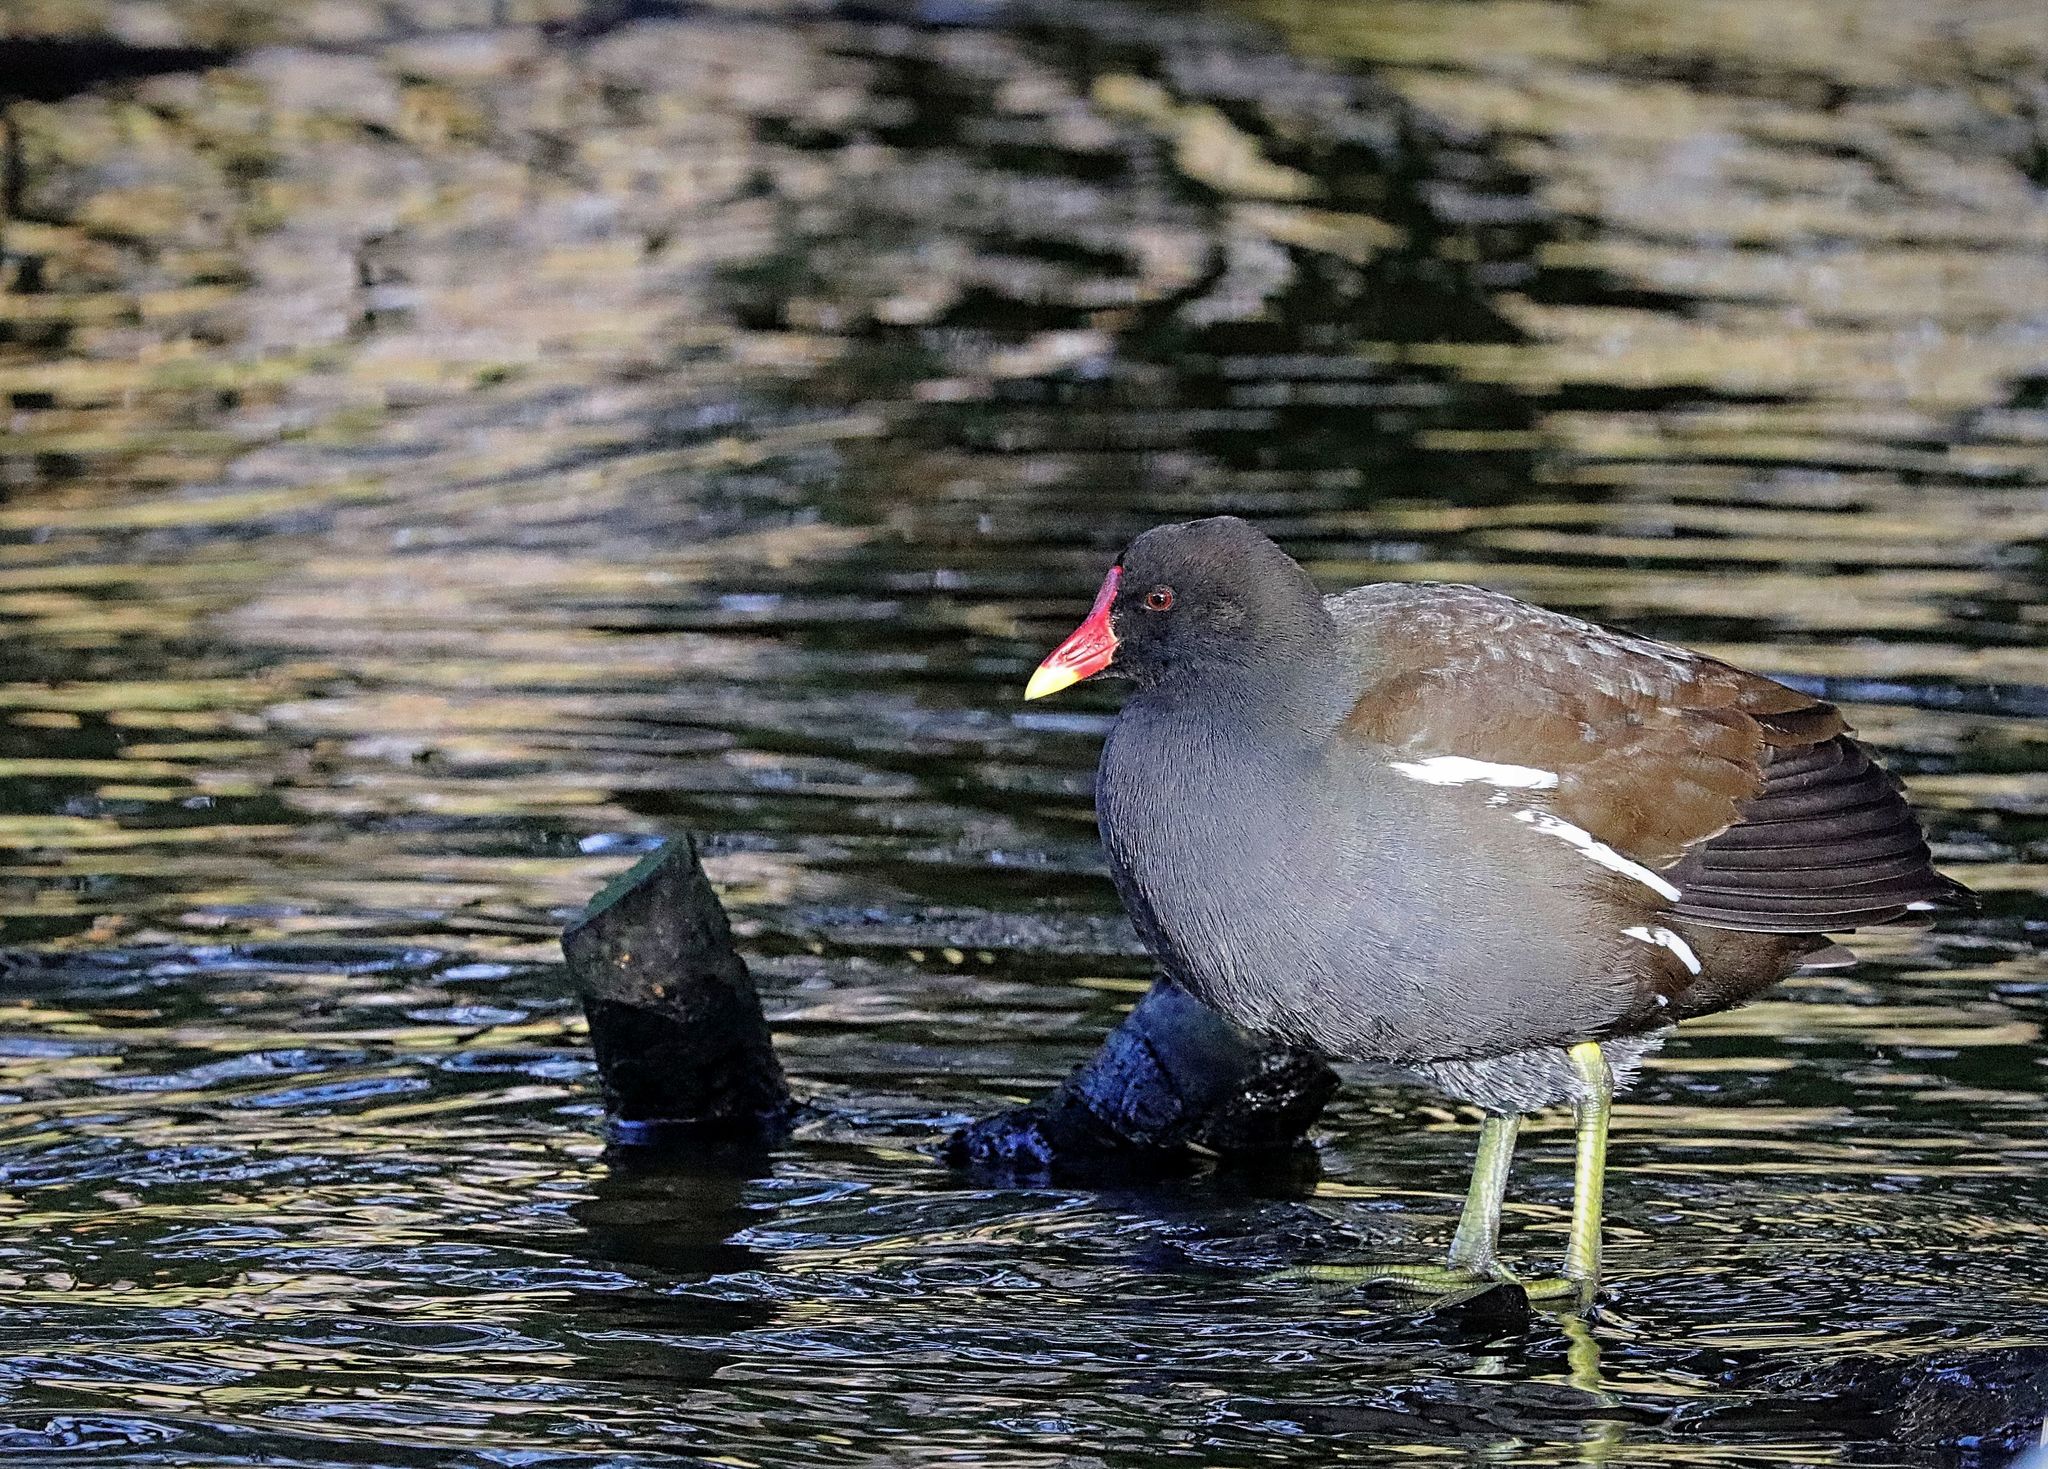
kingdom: Animalia
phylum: Chordata
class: Aves
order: Gruiformes
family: Rallidae
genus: Gallinula
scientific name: Gallinula chloropus
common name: Common moorhen
